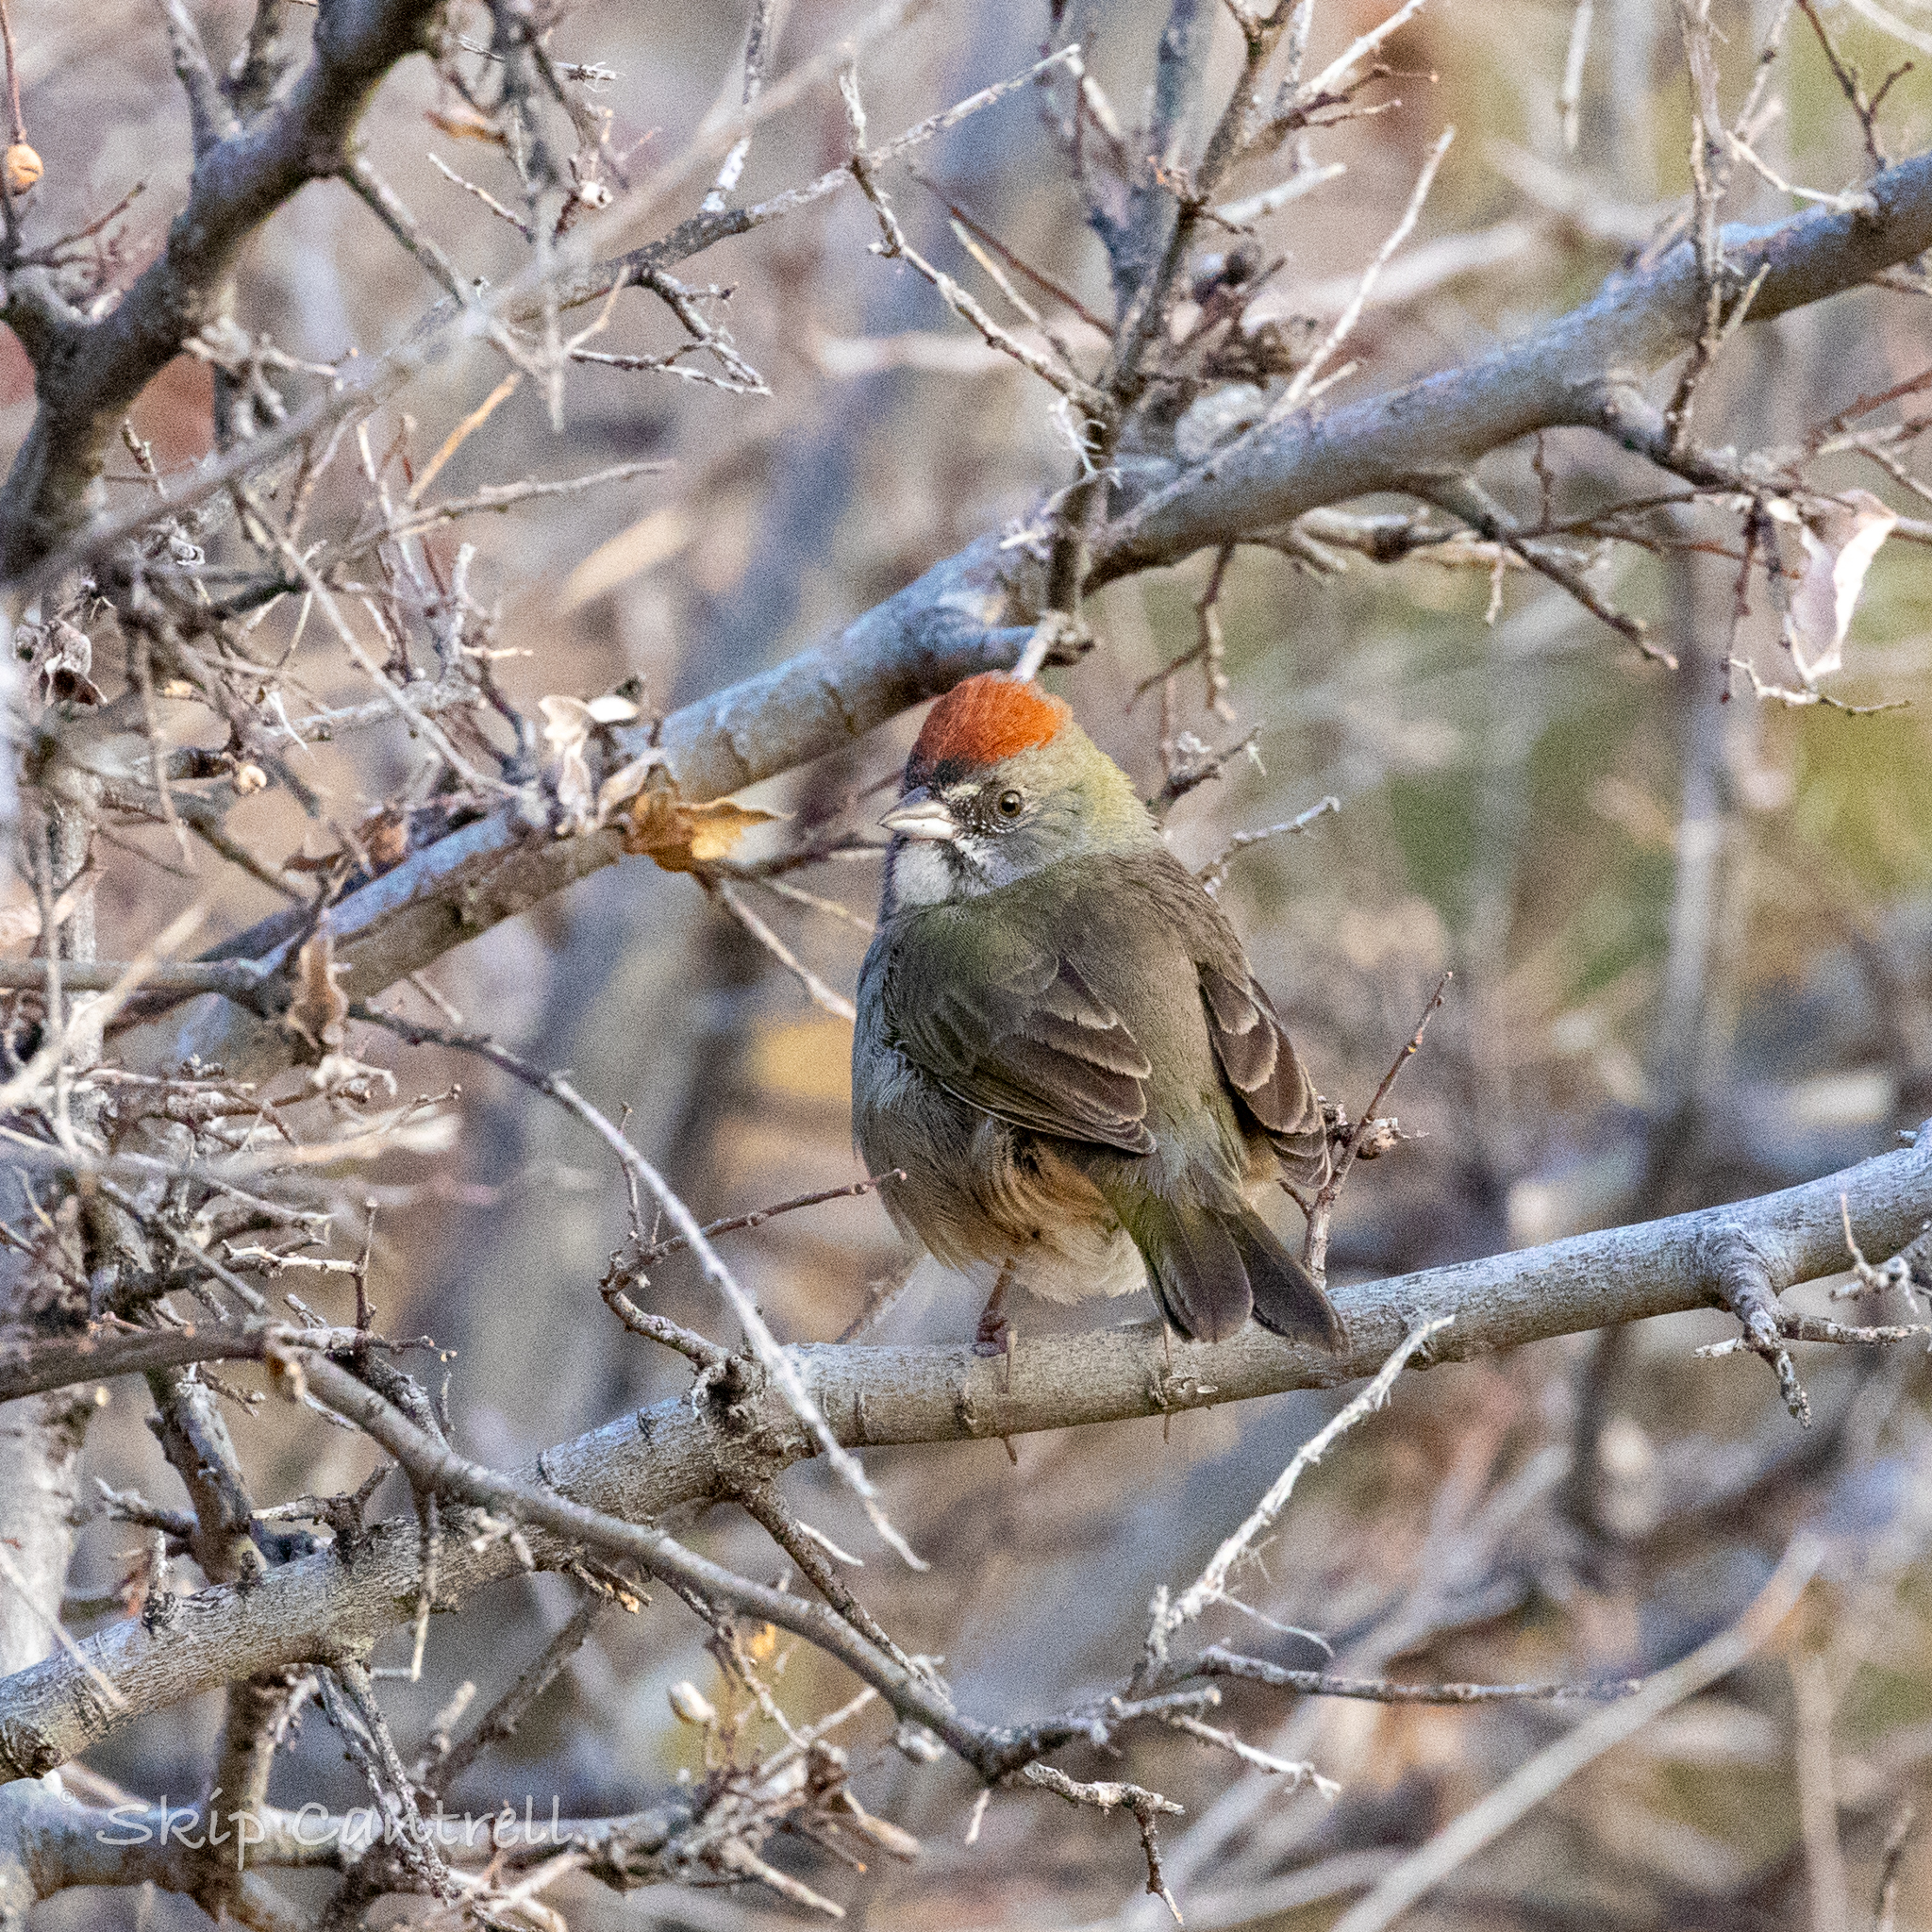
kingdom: Animalia
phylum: Chordata
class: Aves
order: Passeriformes
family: Passerellidae
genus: Pipilo
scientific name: Pipilo chlorurus
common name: Green-tailed towhee
